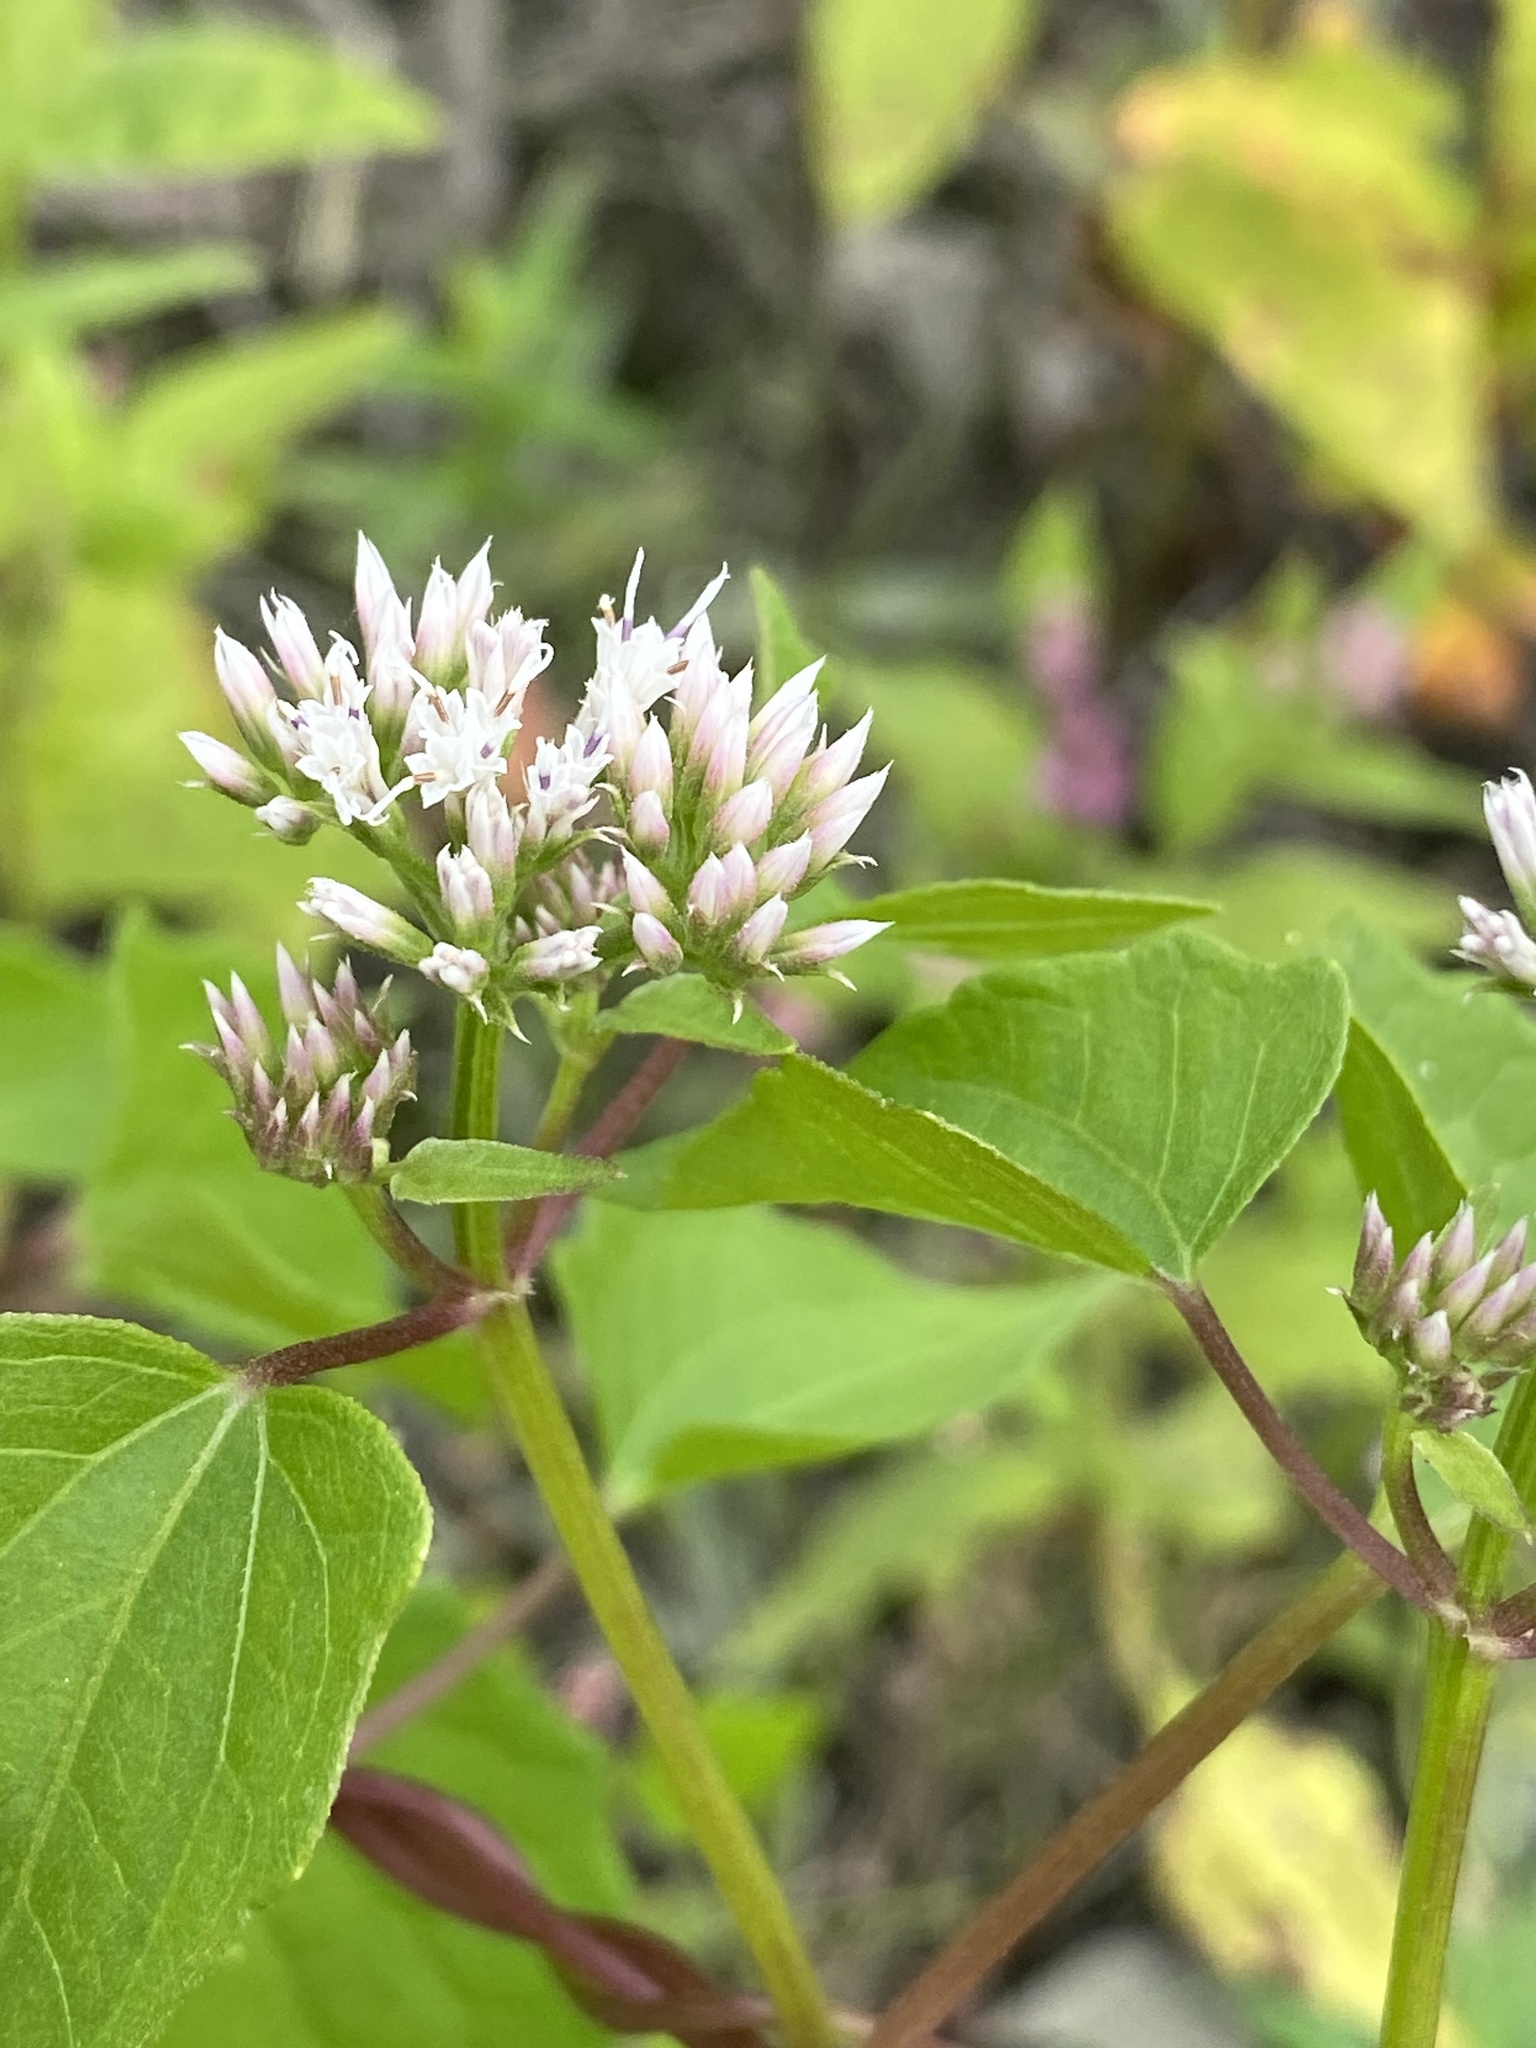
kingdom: Plantae
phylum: Tracheophyta
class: Magnoliopsida
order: Asterales
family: Asteraceae
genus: Mikania
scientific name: Mikania scandens
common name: Climbing hempvine
